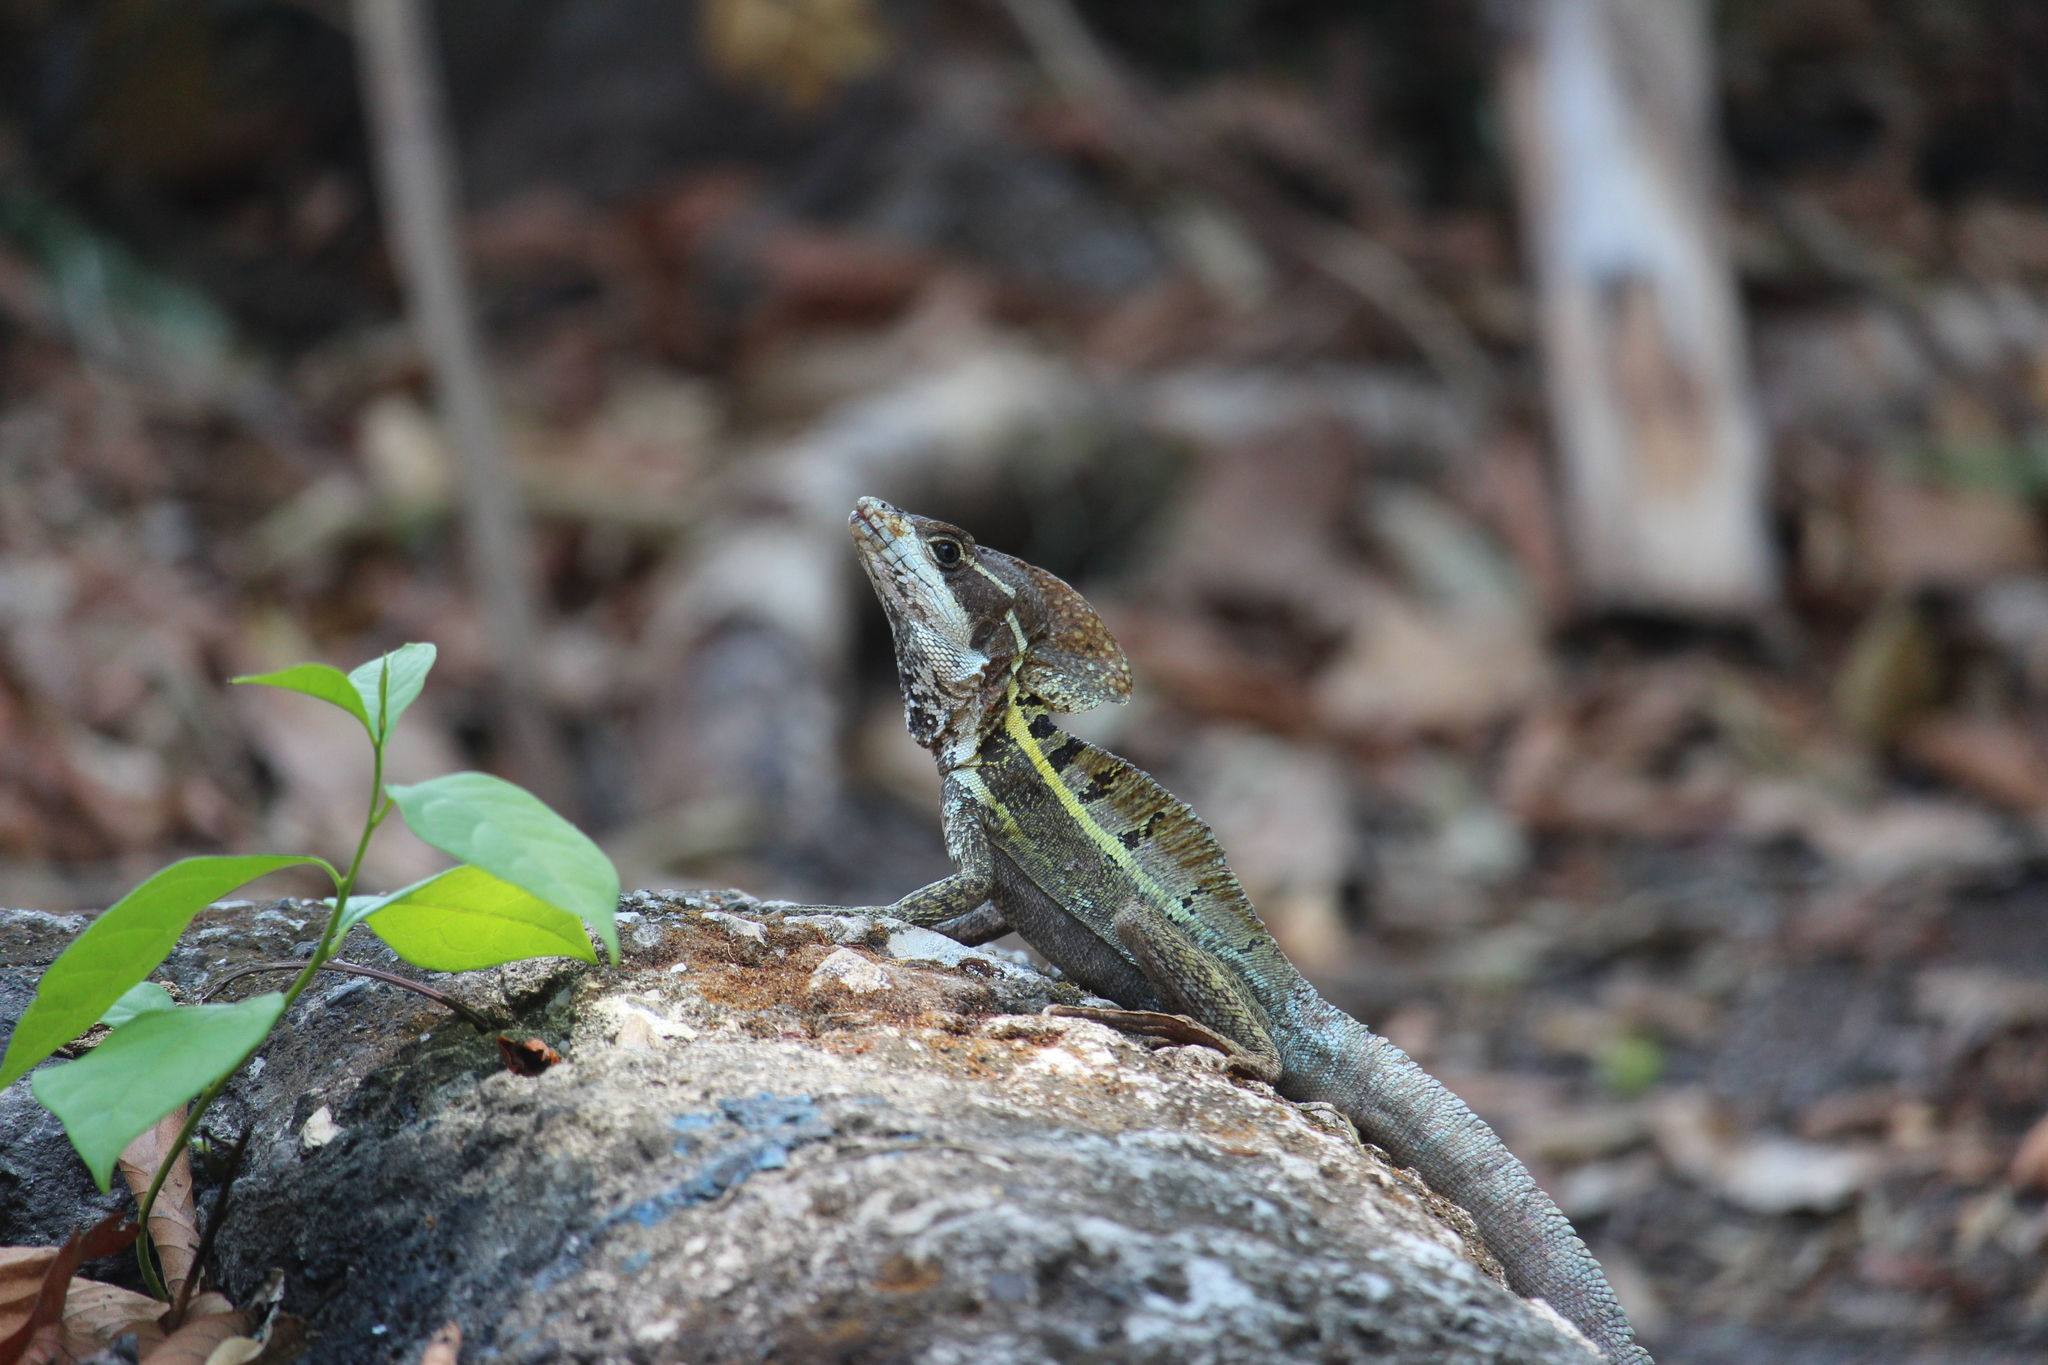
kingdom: Animalia
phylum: Chordata
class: Squamata
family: Corytophanidae
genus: Basiliscus
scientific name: Basiliscus vittatus
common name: Brown basilisk
